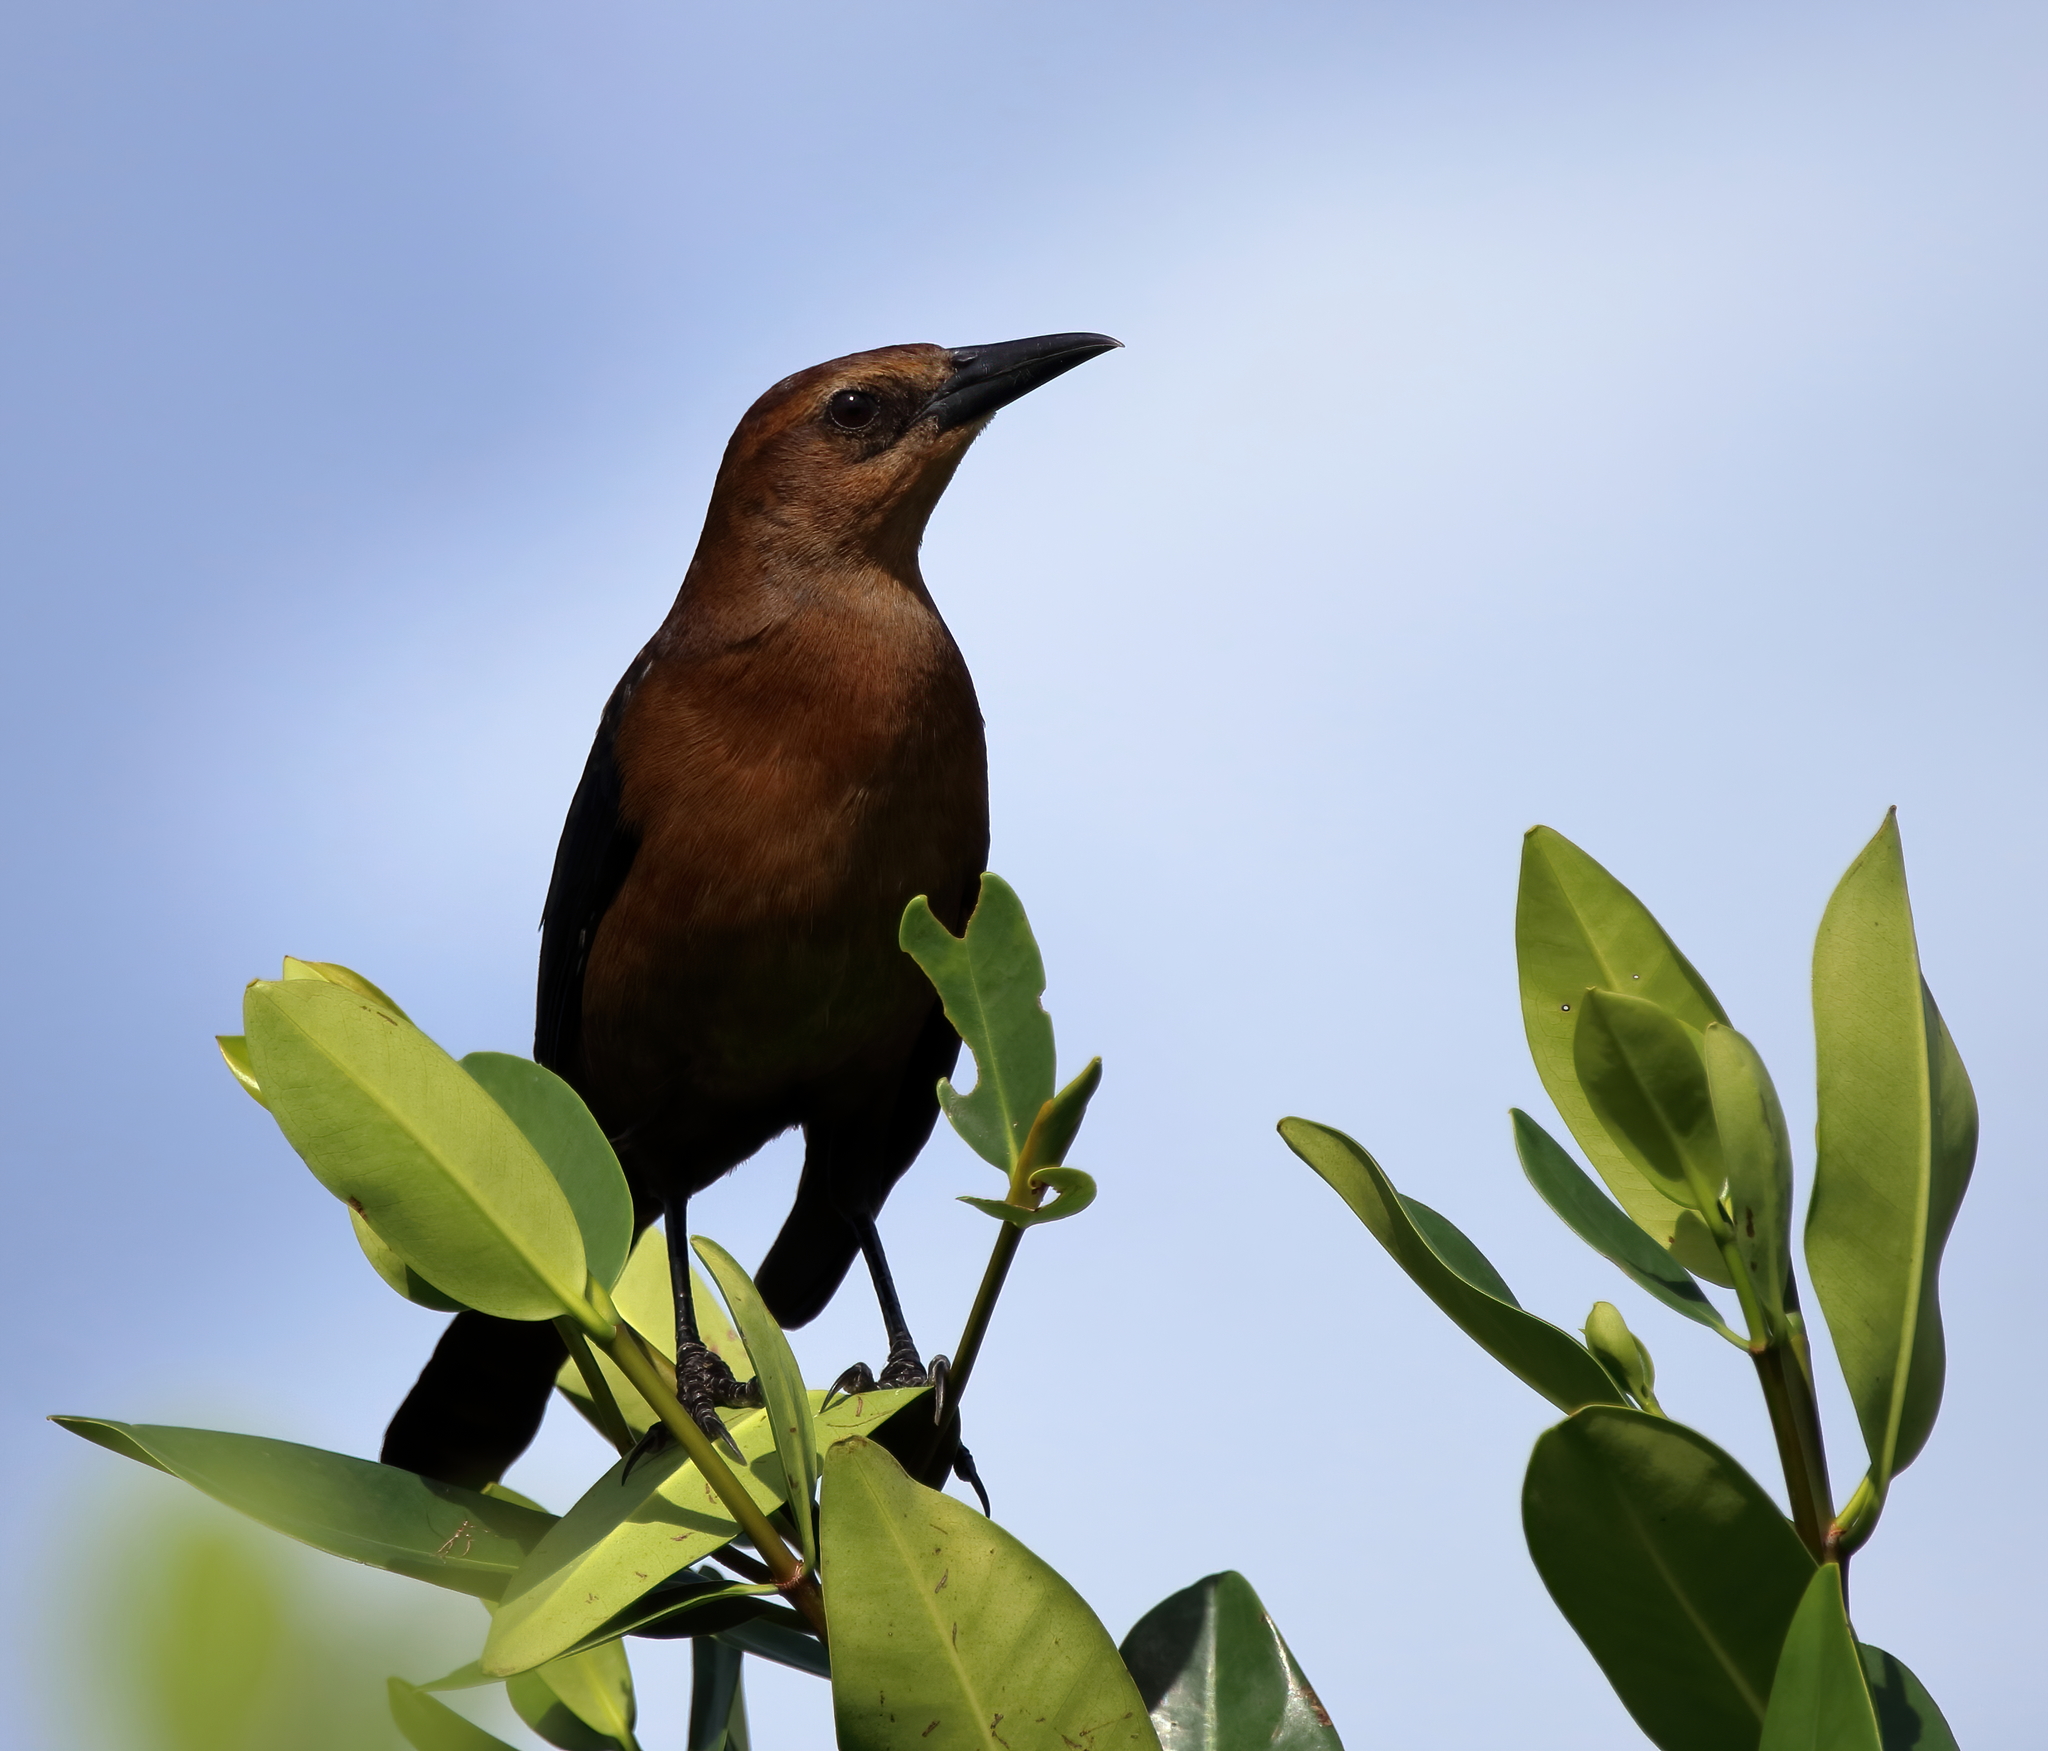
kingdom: Animalia
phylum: Chordata
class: Aves
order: Passeriformes
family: Icteridae
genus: Quiscalus
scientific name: Quiscalus major
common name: Boat-tailed grackle
